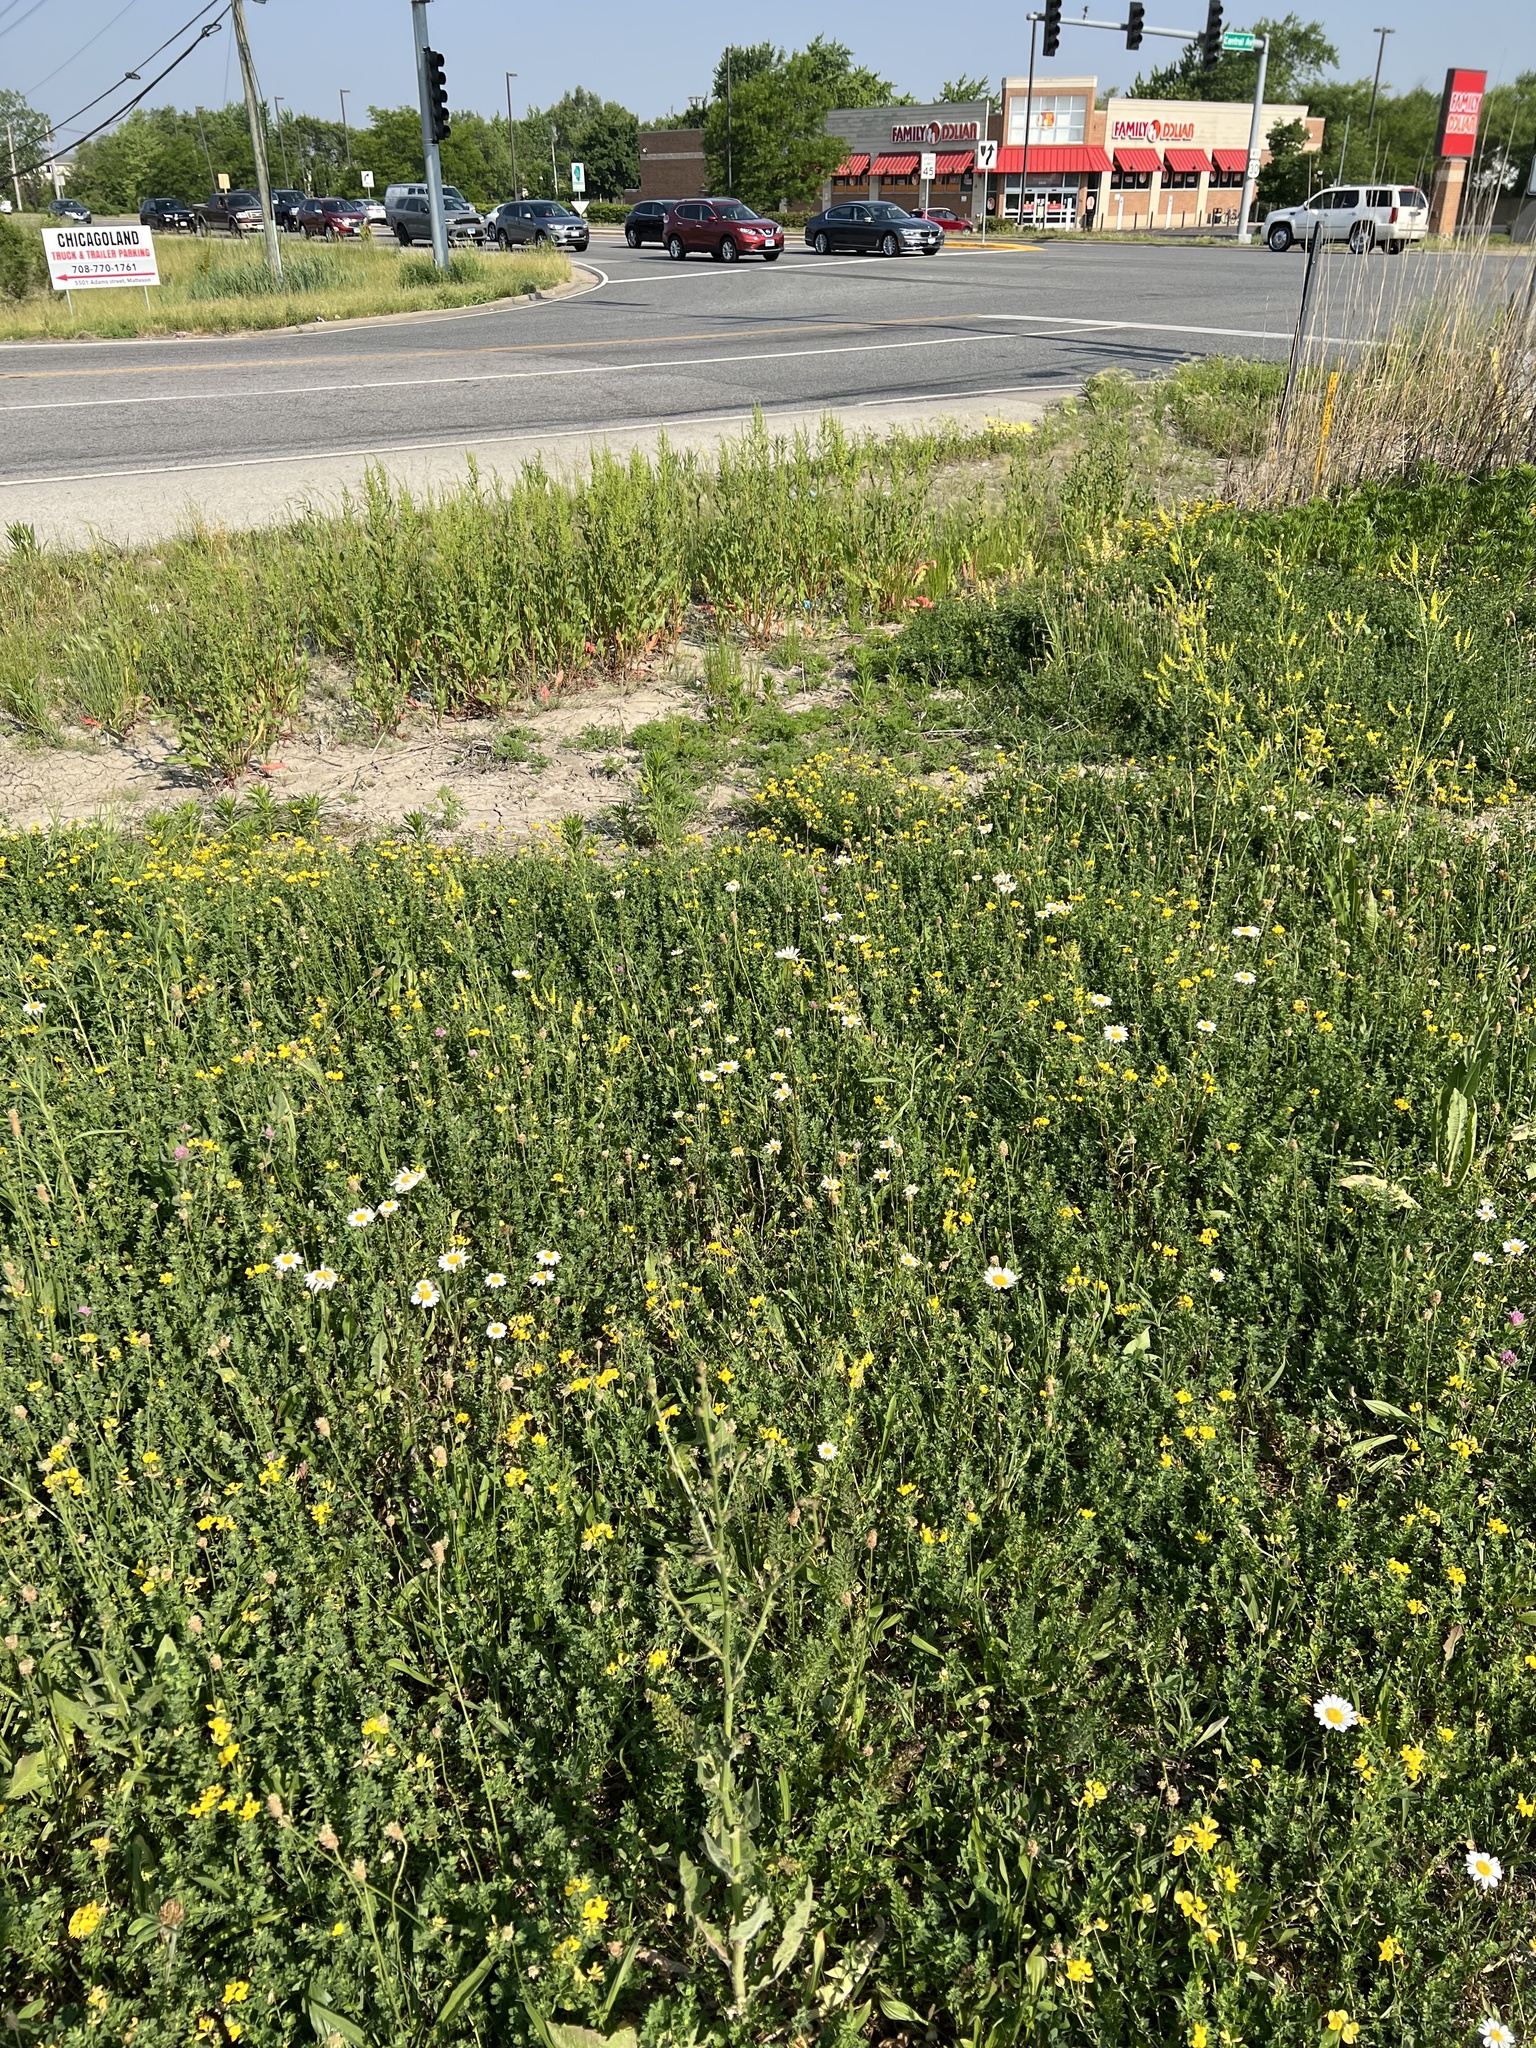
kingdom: Animalia
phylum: Arthropoda
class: Arachnida
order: Araneae
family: Salticidae
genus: Phidippus
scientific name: Phidippus clarus
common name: Brilliant jumping spider
